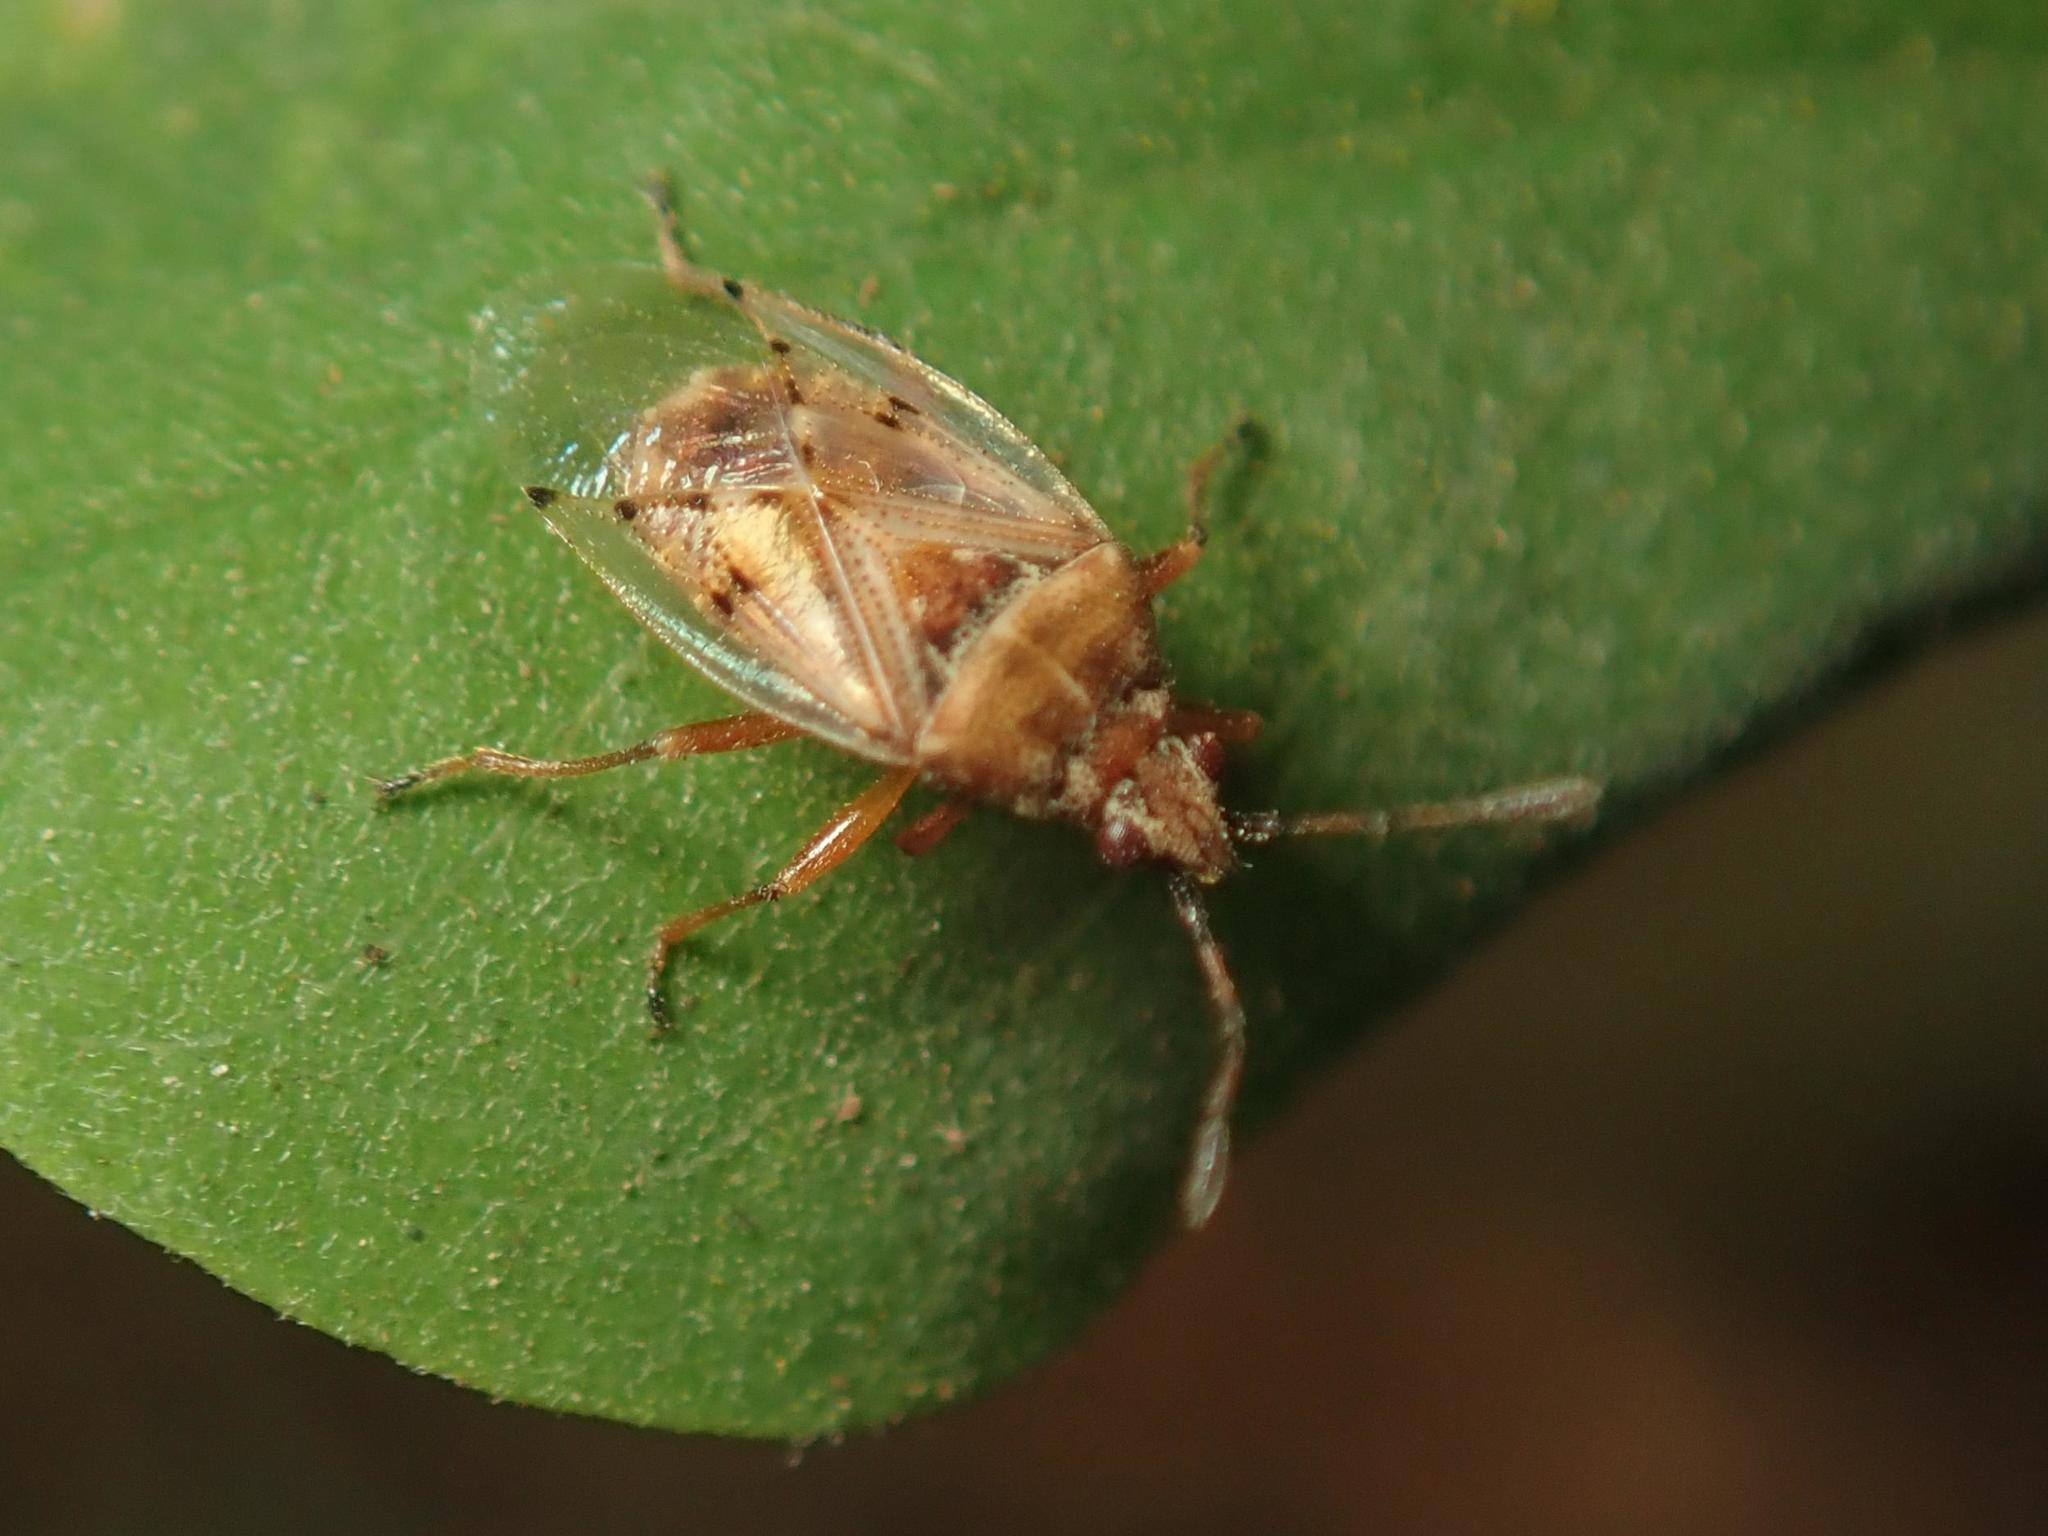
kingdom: Animalia
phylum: Arthropoda
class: Insecta
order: Hemiptera
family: Lygaeidae
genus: Kleidocerys
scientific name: Kleidocerys resedae
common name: Birch catkin bug
